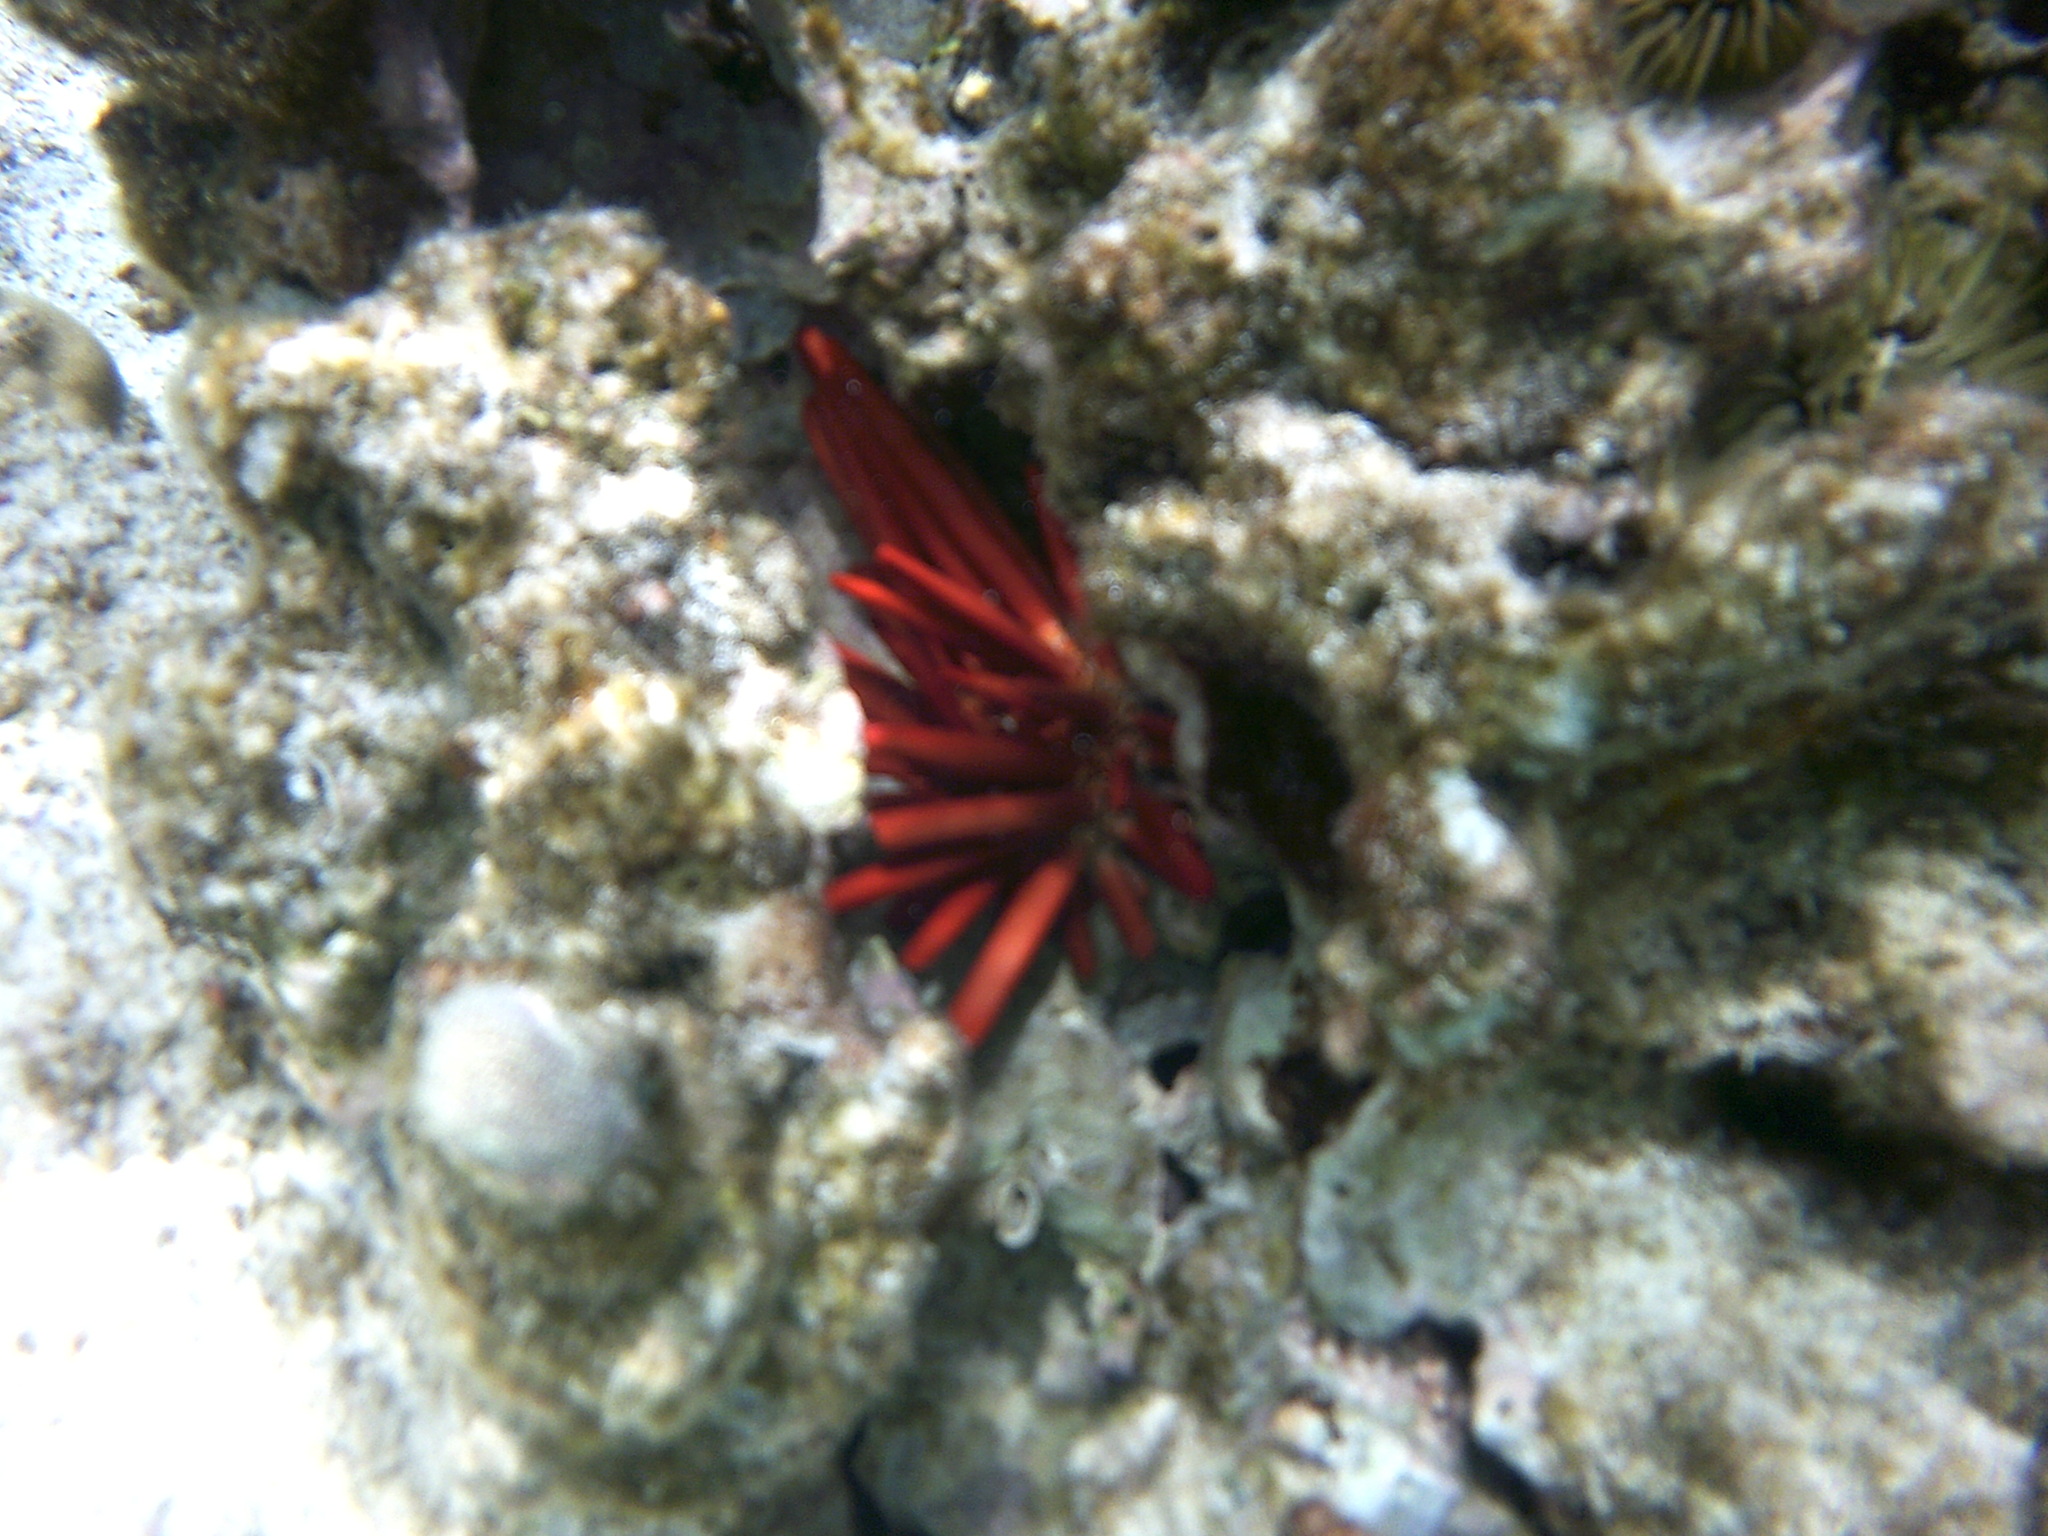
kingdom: Animalia
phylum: Echinodermata
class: Echinoidea
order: Camarodonta
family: Echinometridae
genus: Heterocentrotus
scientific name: Heterocentrotus mamillatus
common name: Slate pencil urchin
